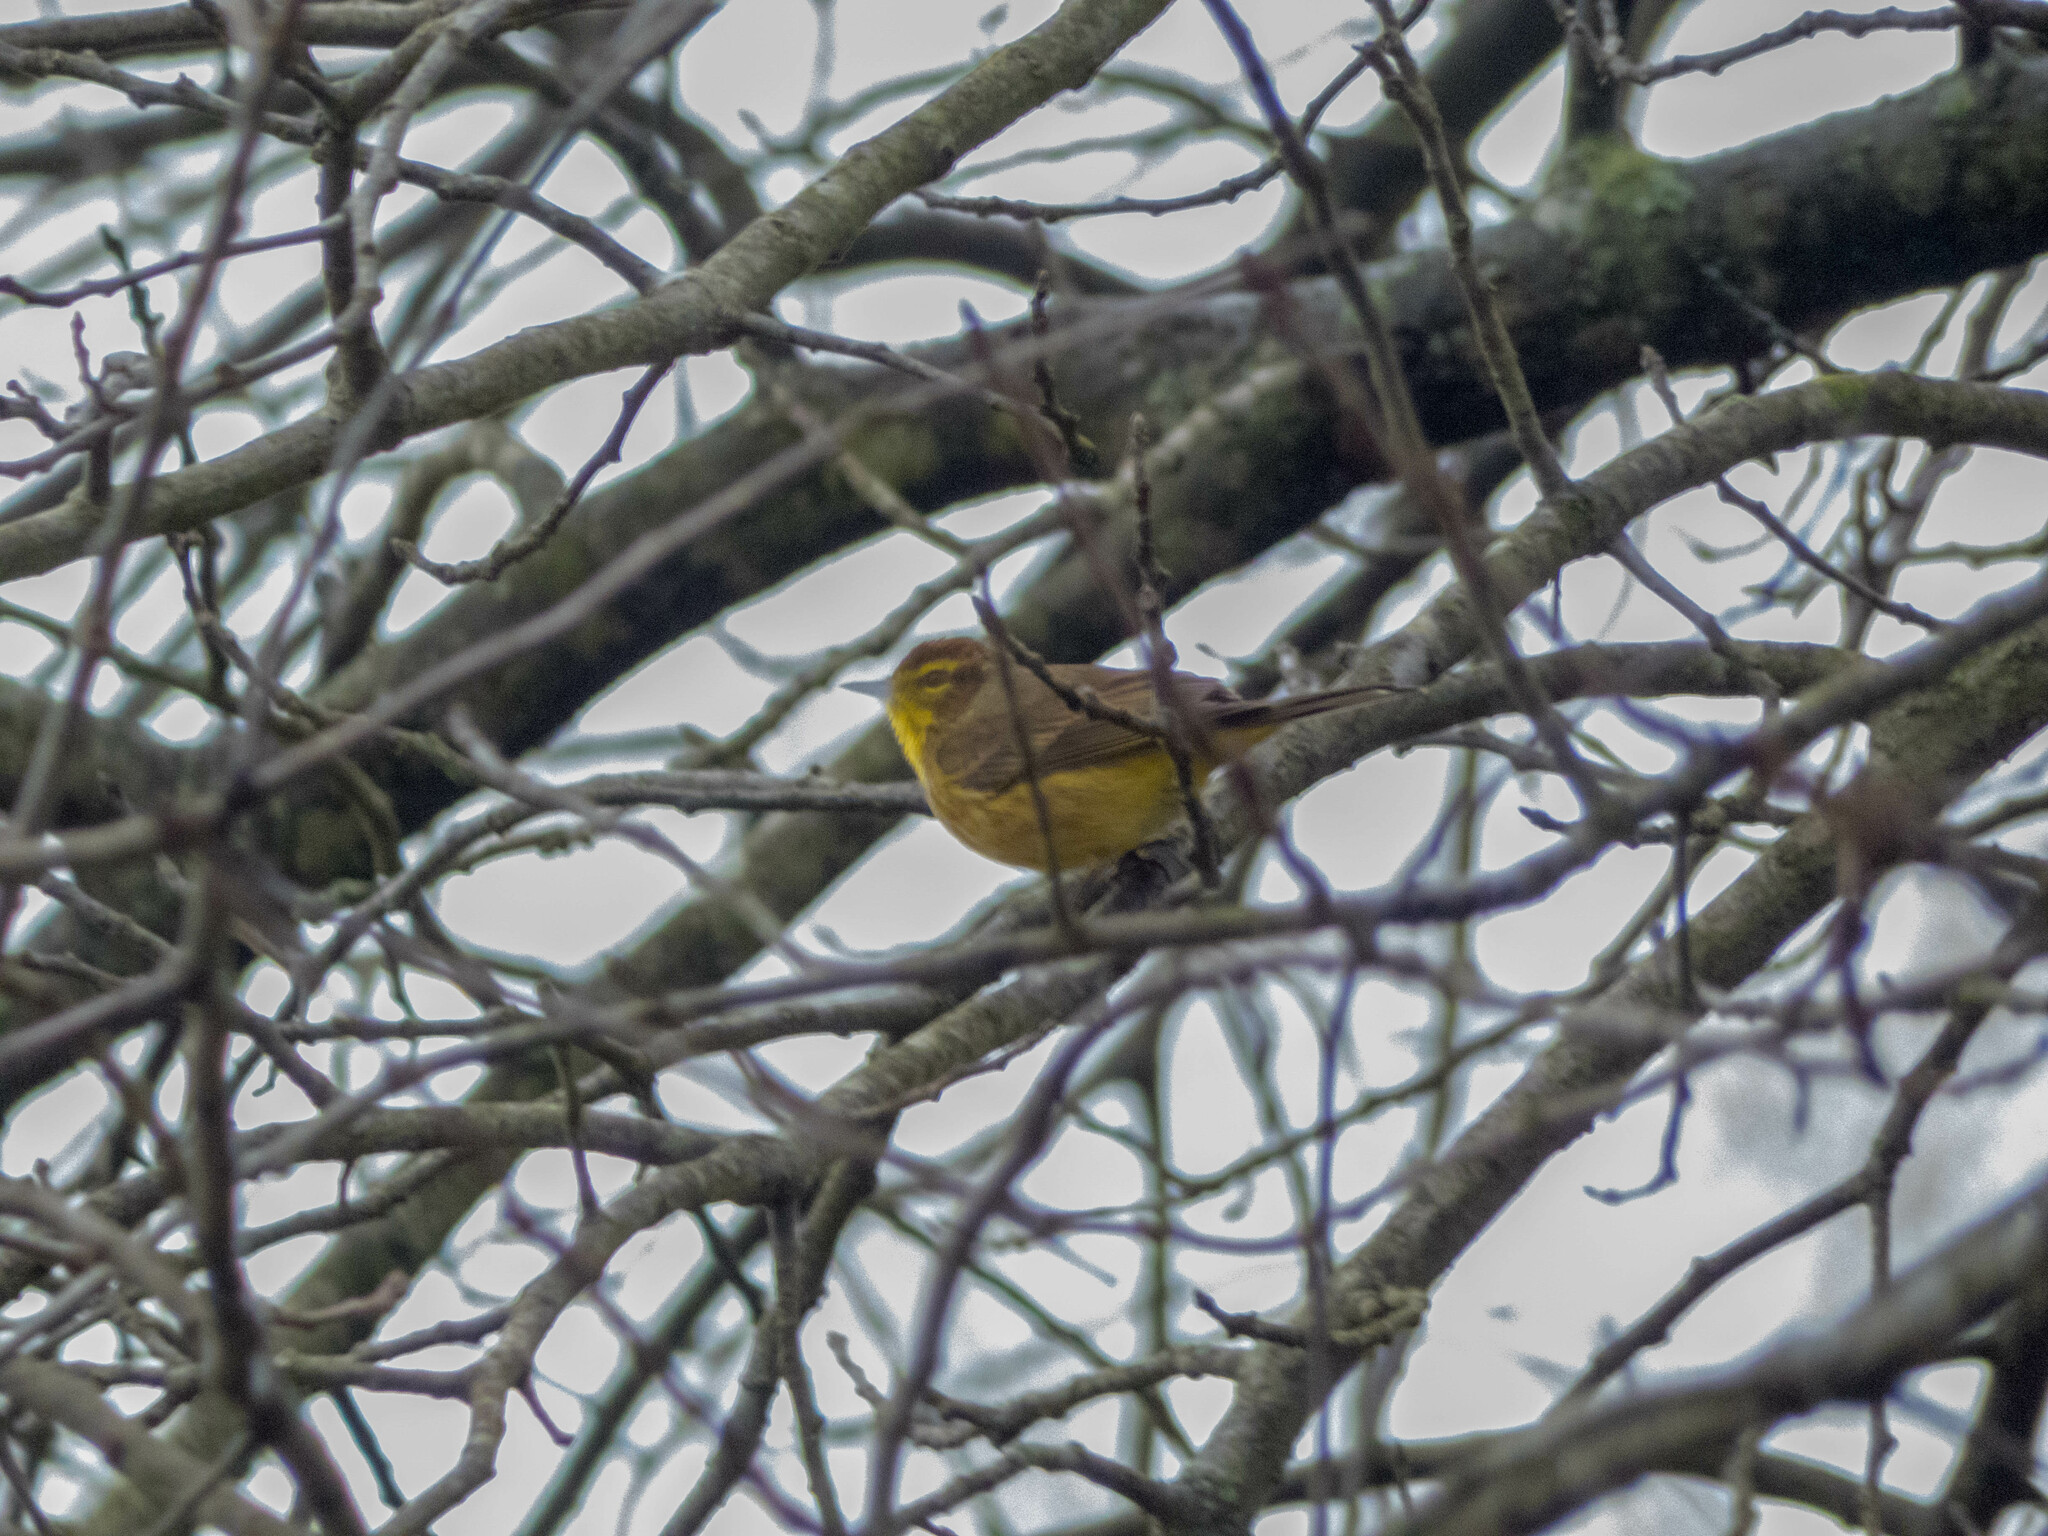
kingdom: Animalia
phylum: Chordata
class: Aves
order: Passeriformes
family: Parulidae
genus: Setophaga
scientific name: Setophaga palmarum
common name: Palm warbler
